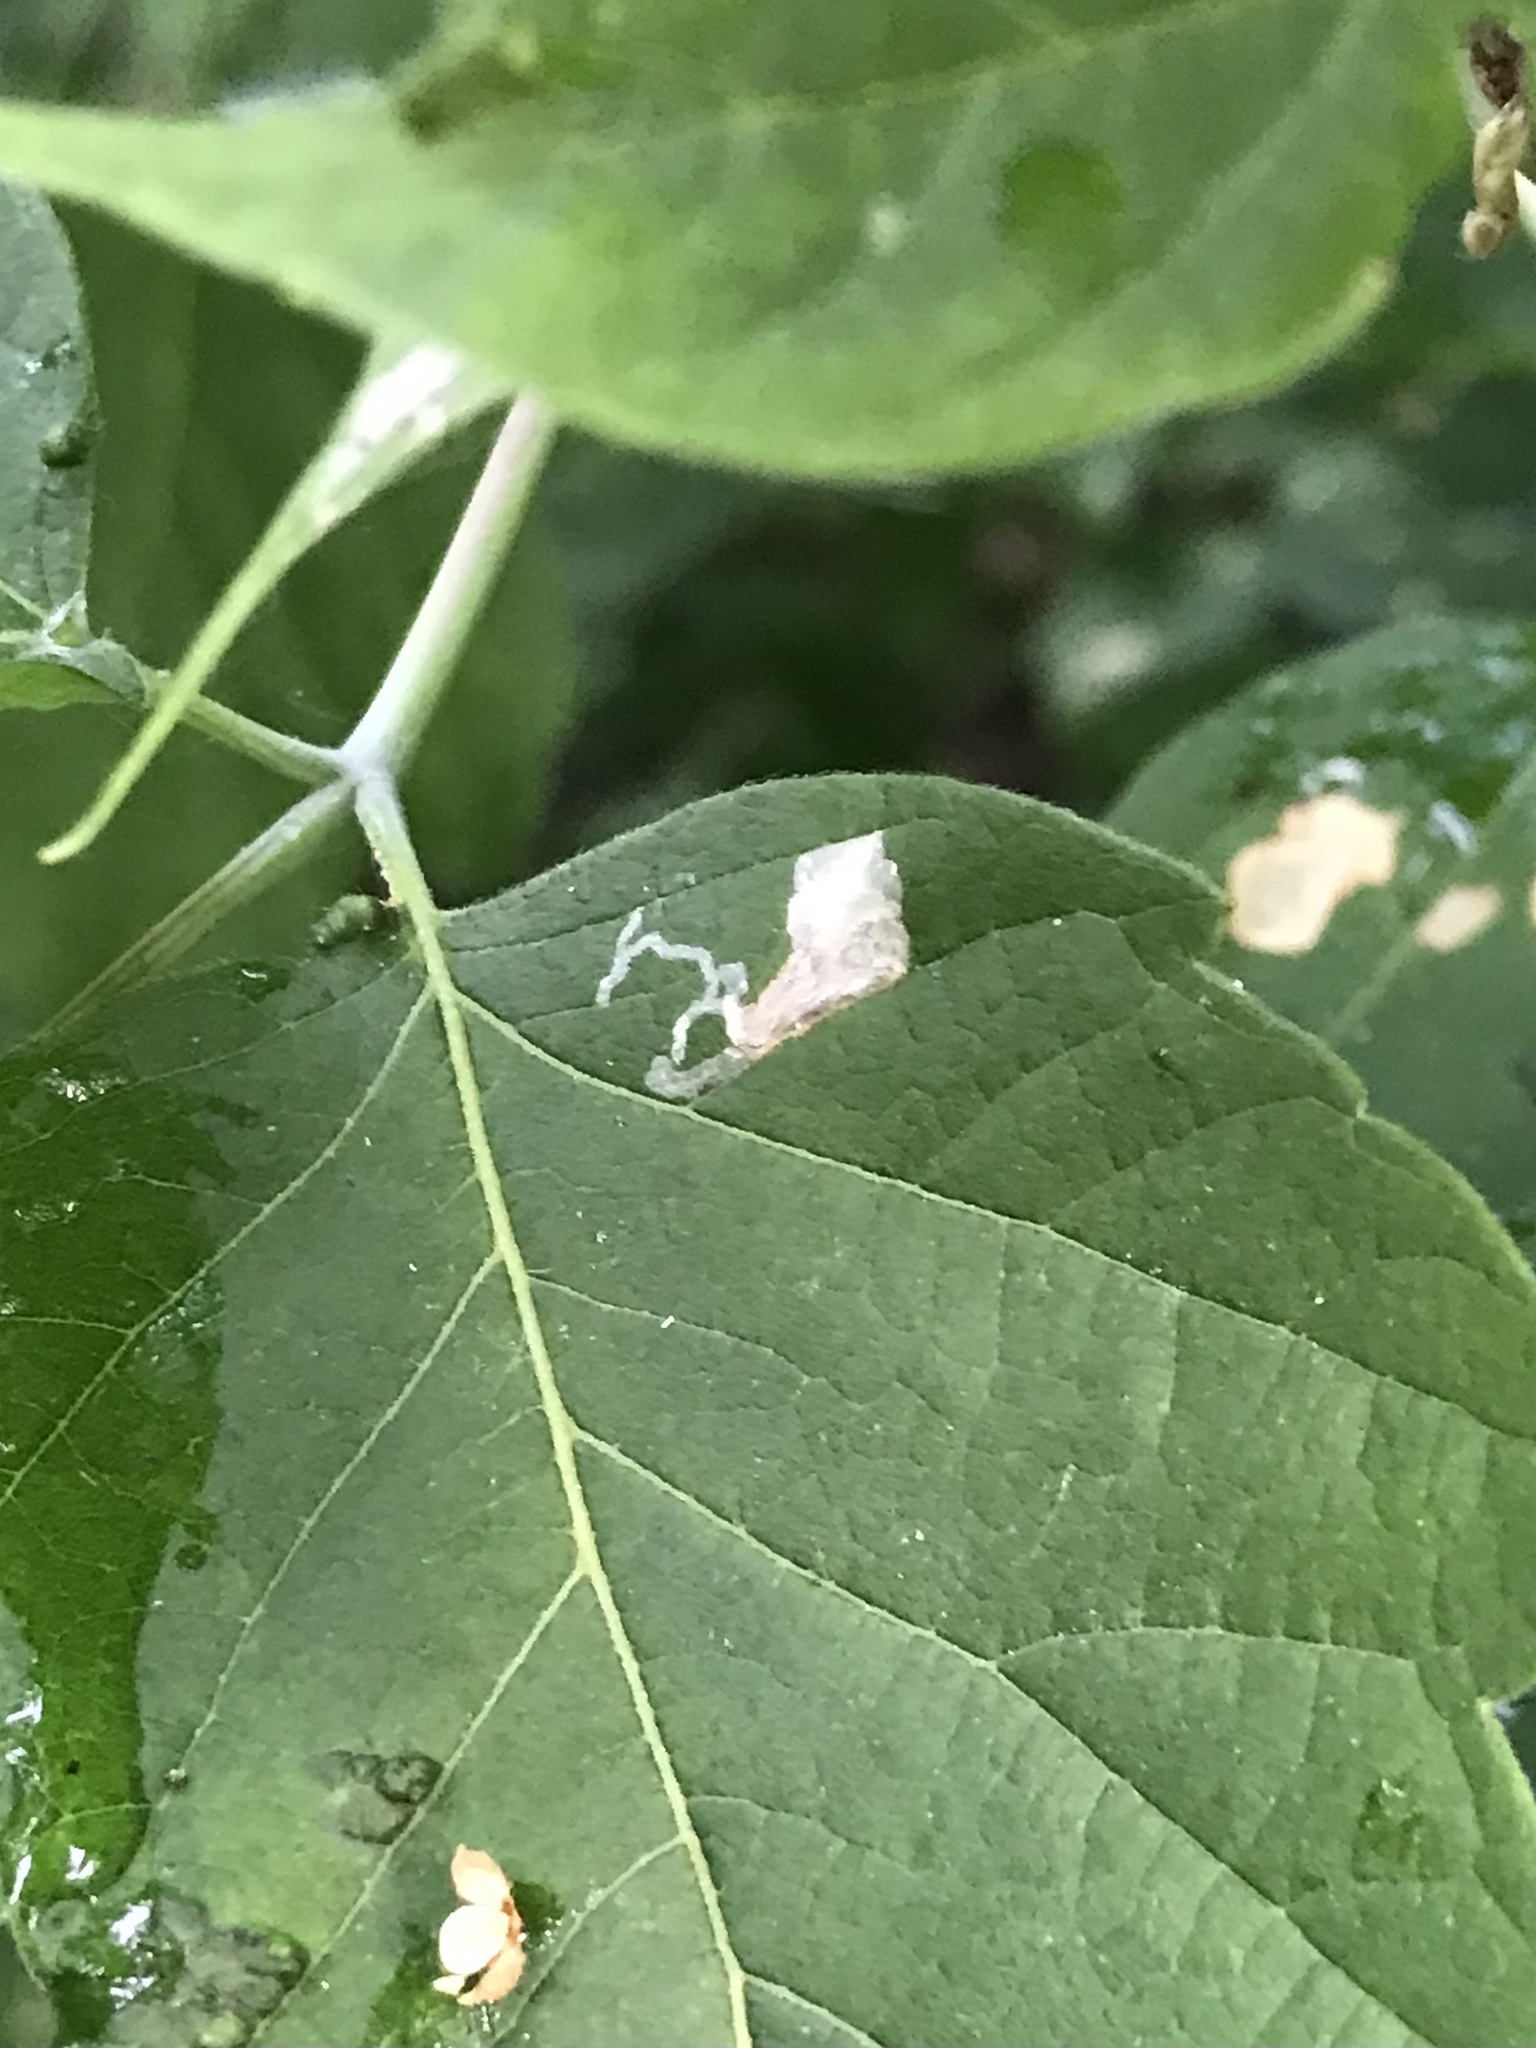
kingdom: Animalia
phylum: Arthropoda
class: Insecta
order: Lepidoptera
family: Gracillariidae
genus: Caloptilia
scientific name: Caloptilia negundella
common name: Leafminer
